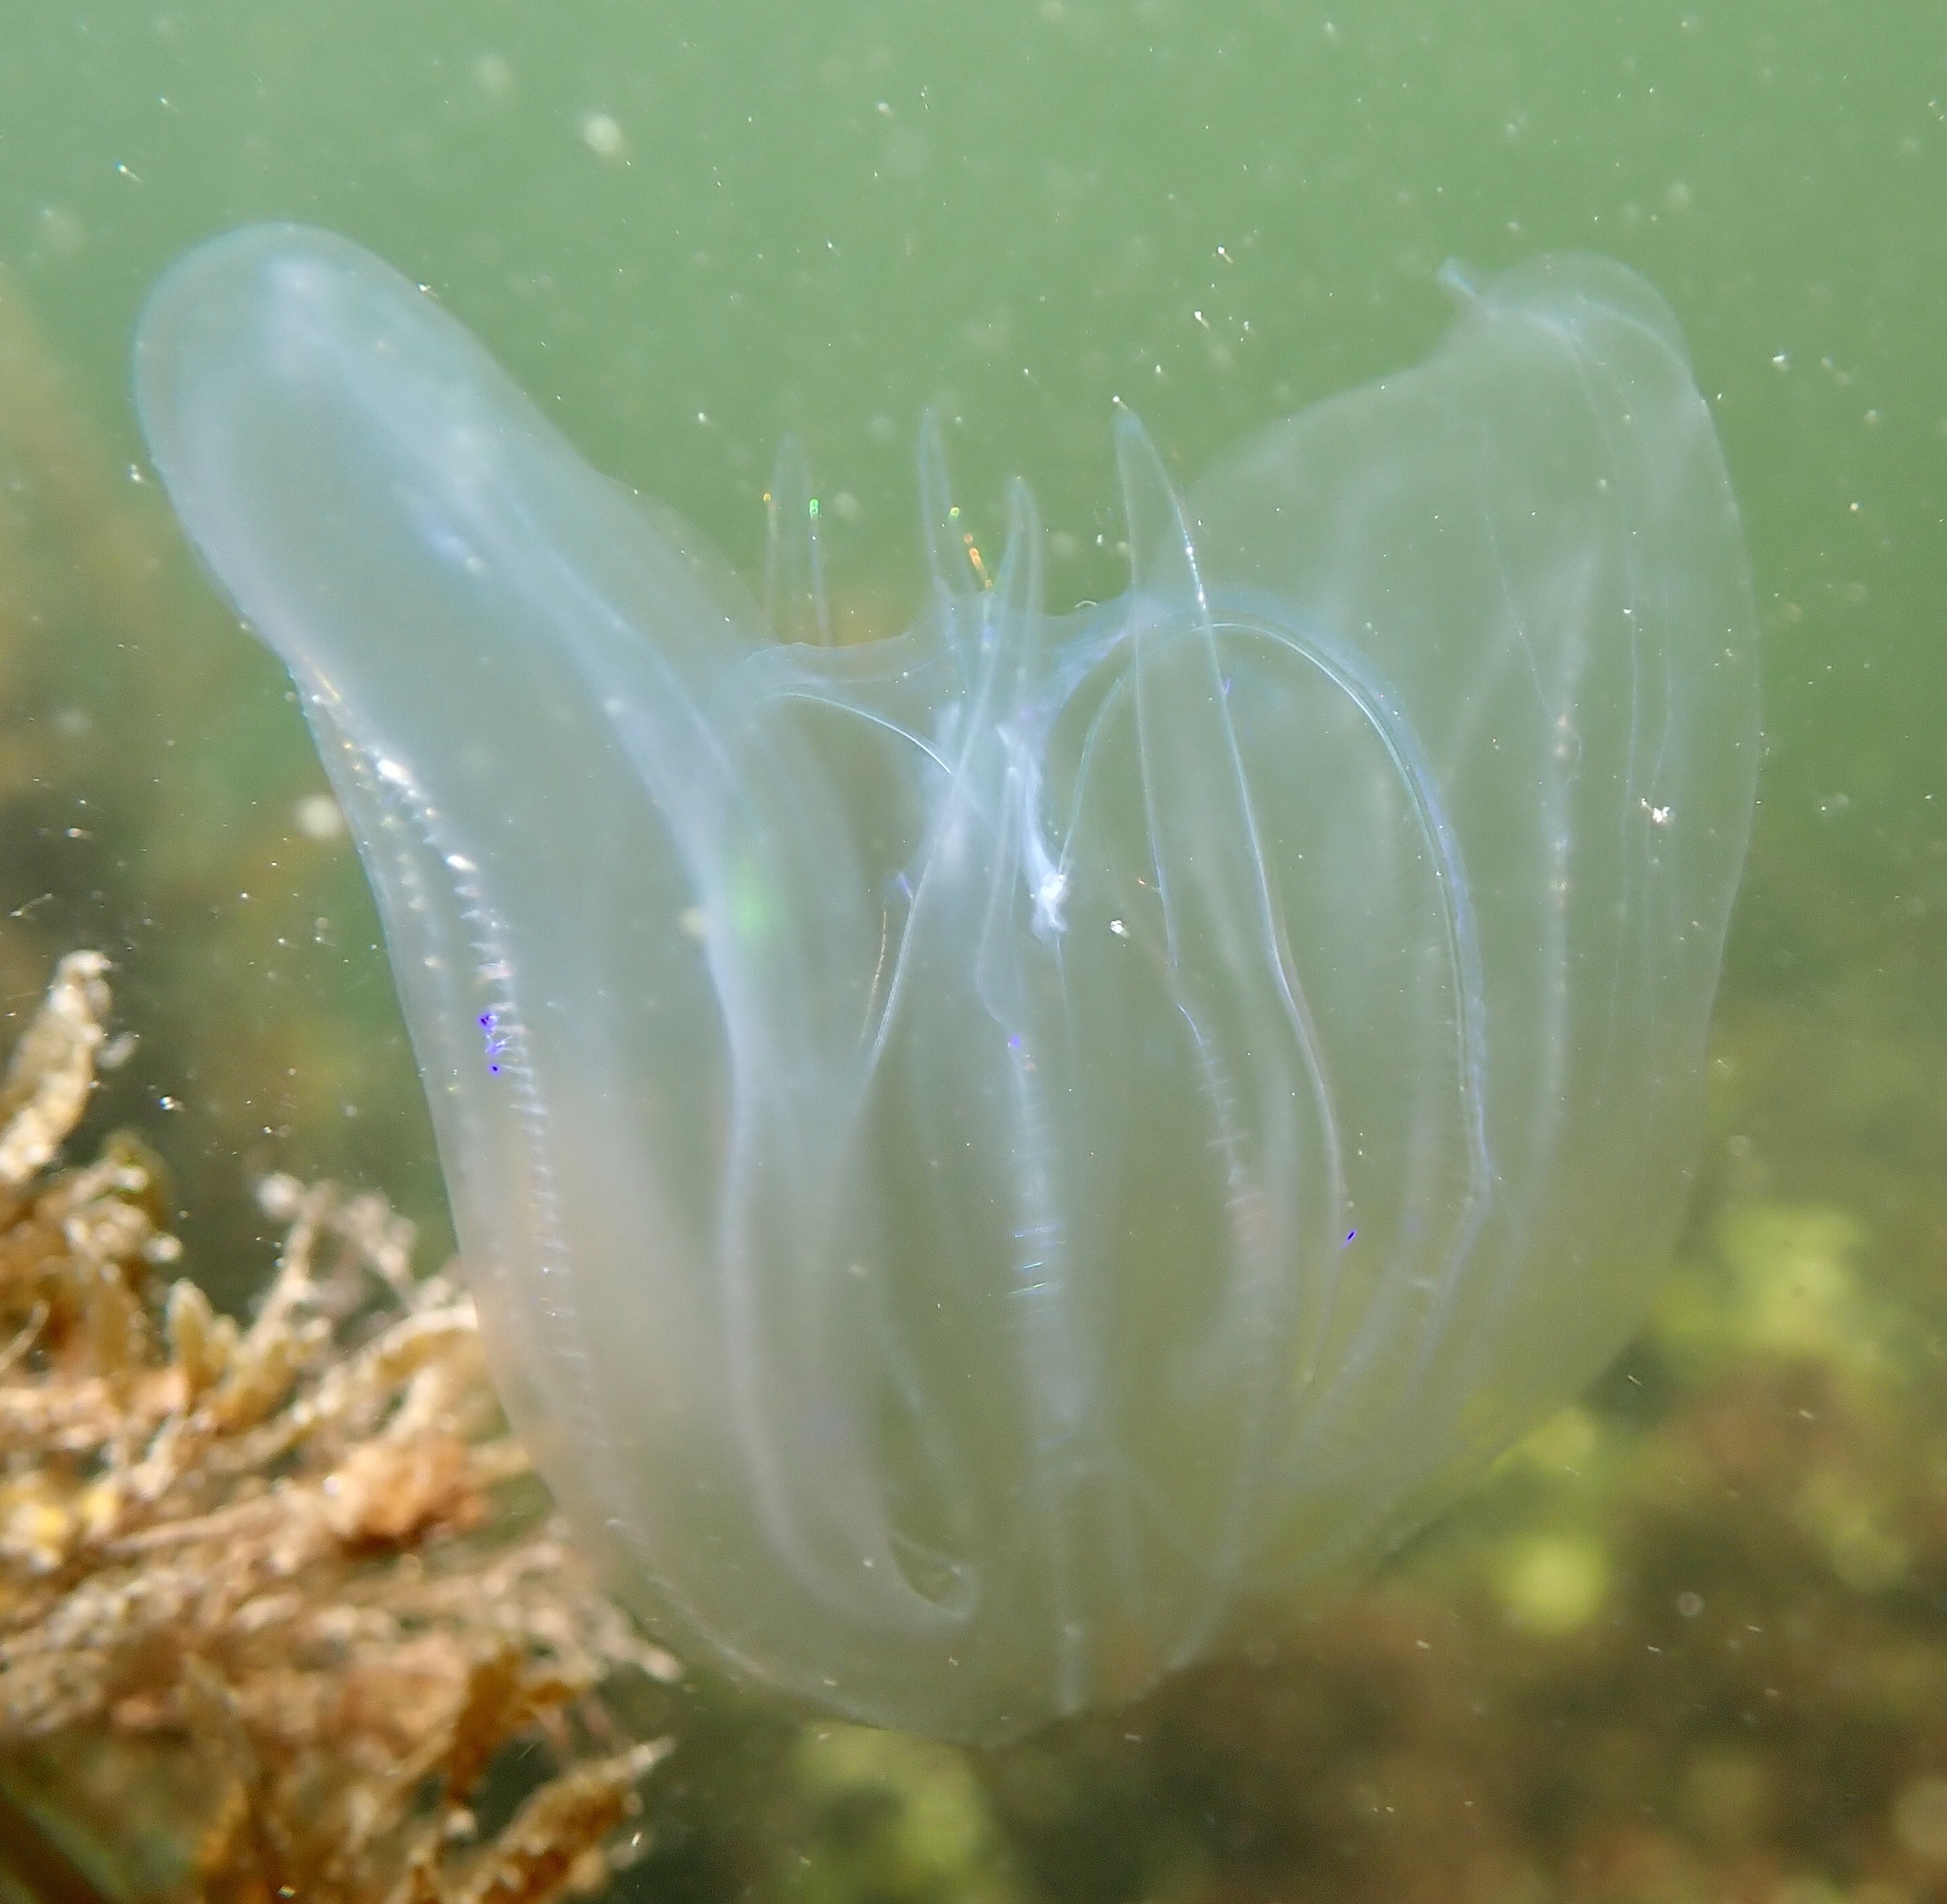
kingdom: Animalia
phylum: Ctenophora
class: Tentaculata
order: Lobata
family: Bolinopsidae
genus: Mnemiopsis
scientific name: Mnemiopsis leidyi
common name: American comb jelly
